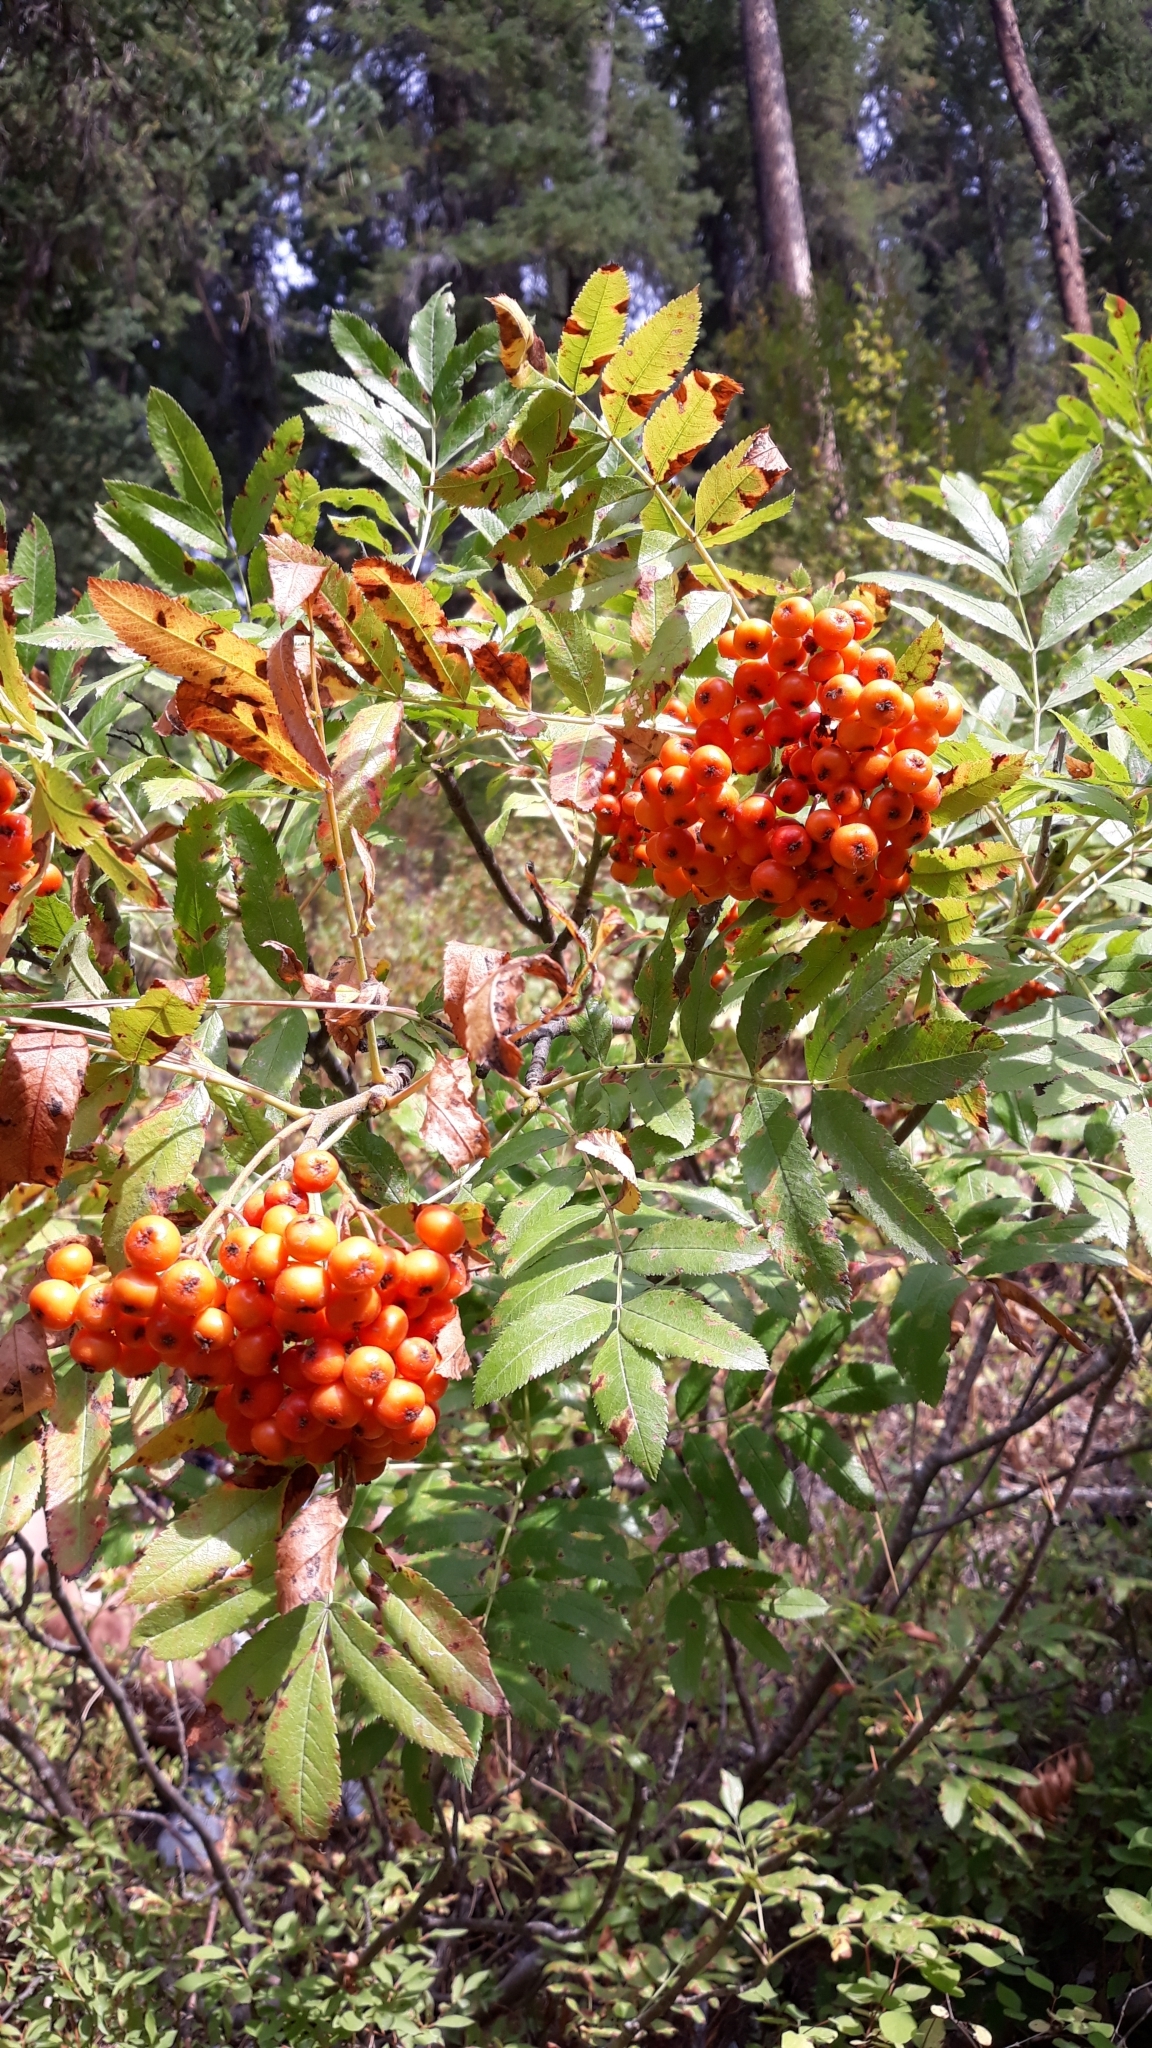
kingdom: Plantae
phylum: Tracheophyta
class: Magnoliopsida
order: Rosales
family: Rosaceae
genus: Sorbus
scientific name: Sorbus aucuparia
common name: Rowan
